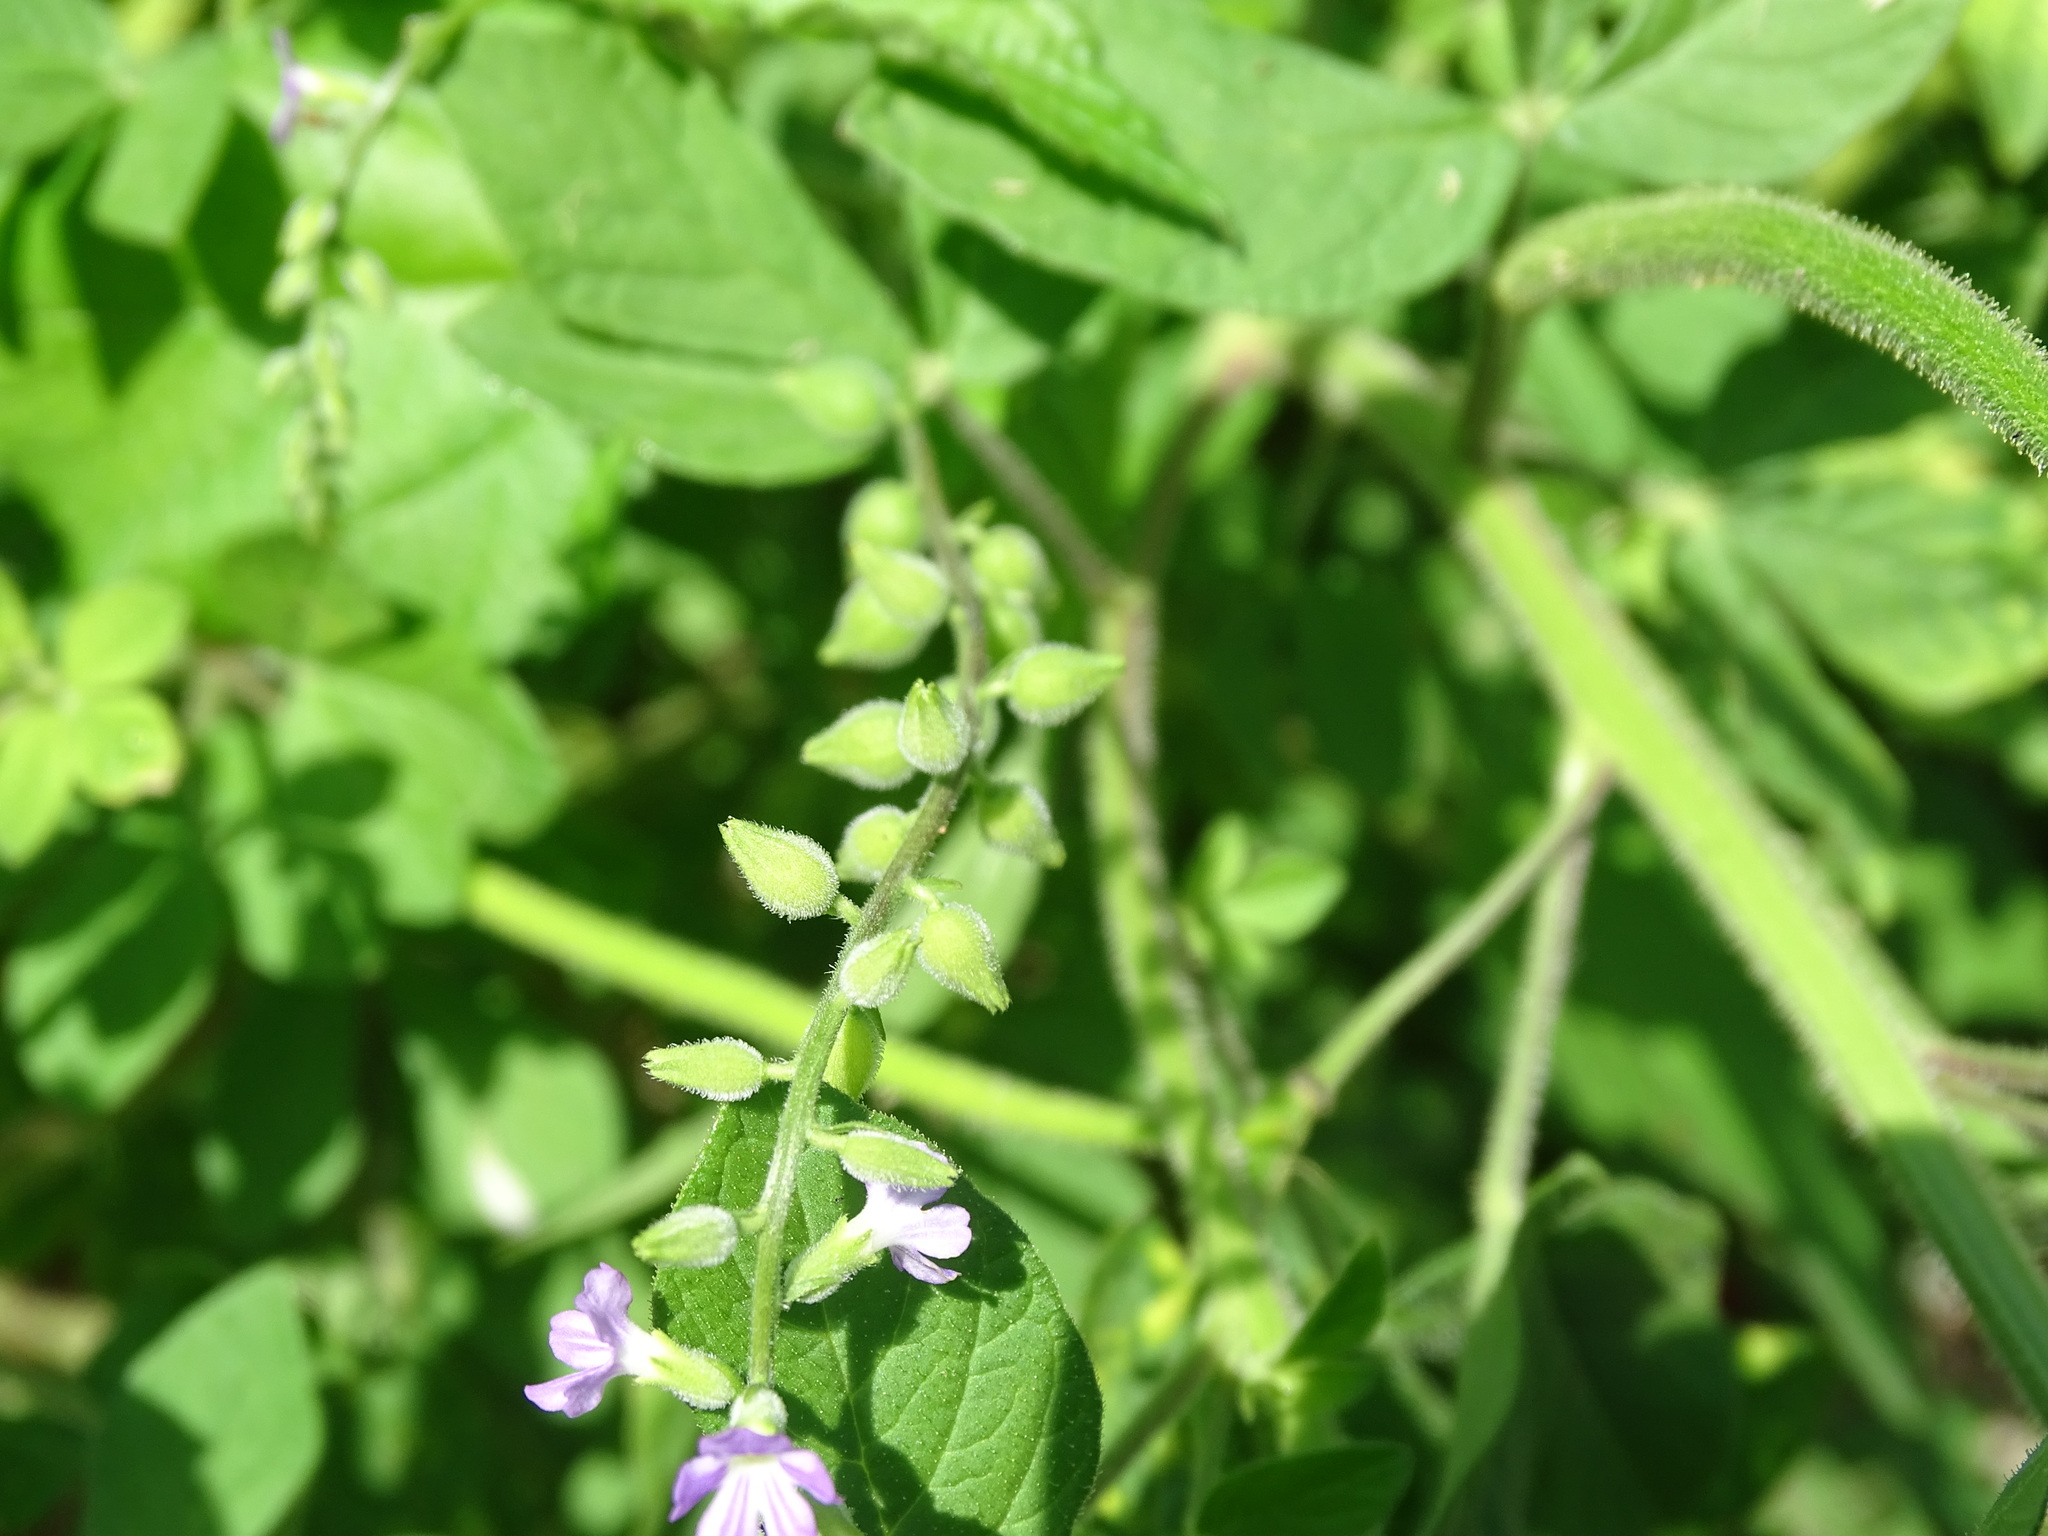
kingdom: Plantae
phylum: Tracheophyta
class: Magnoliopsida
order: Lamiales
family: Verbenaceae
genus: Priva
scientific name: Priva lappulacea
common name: Fasten-'pon-coat
